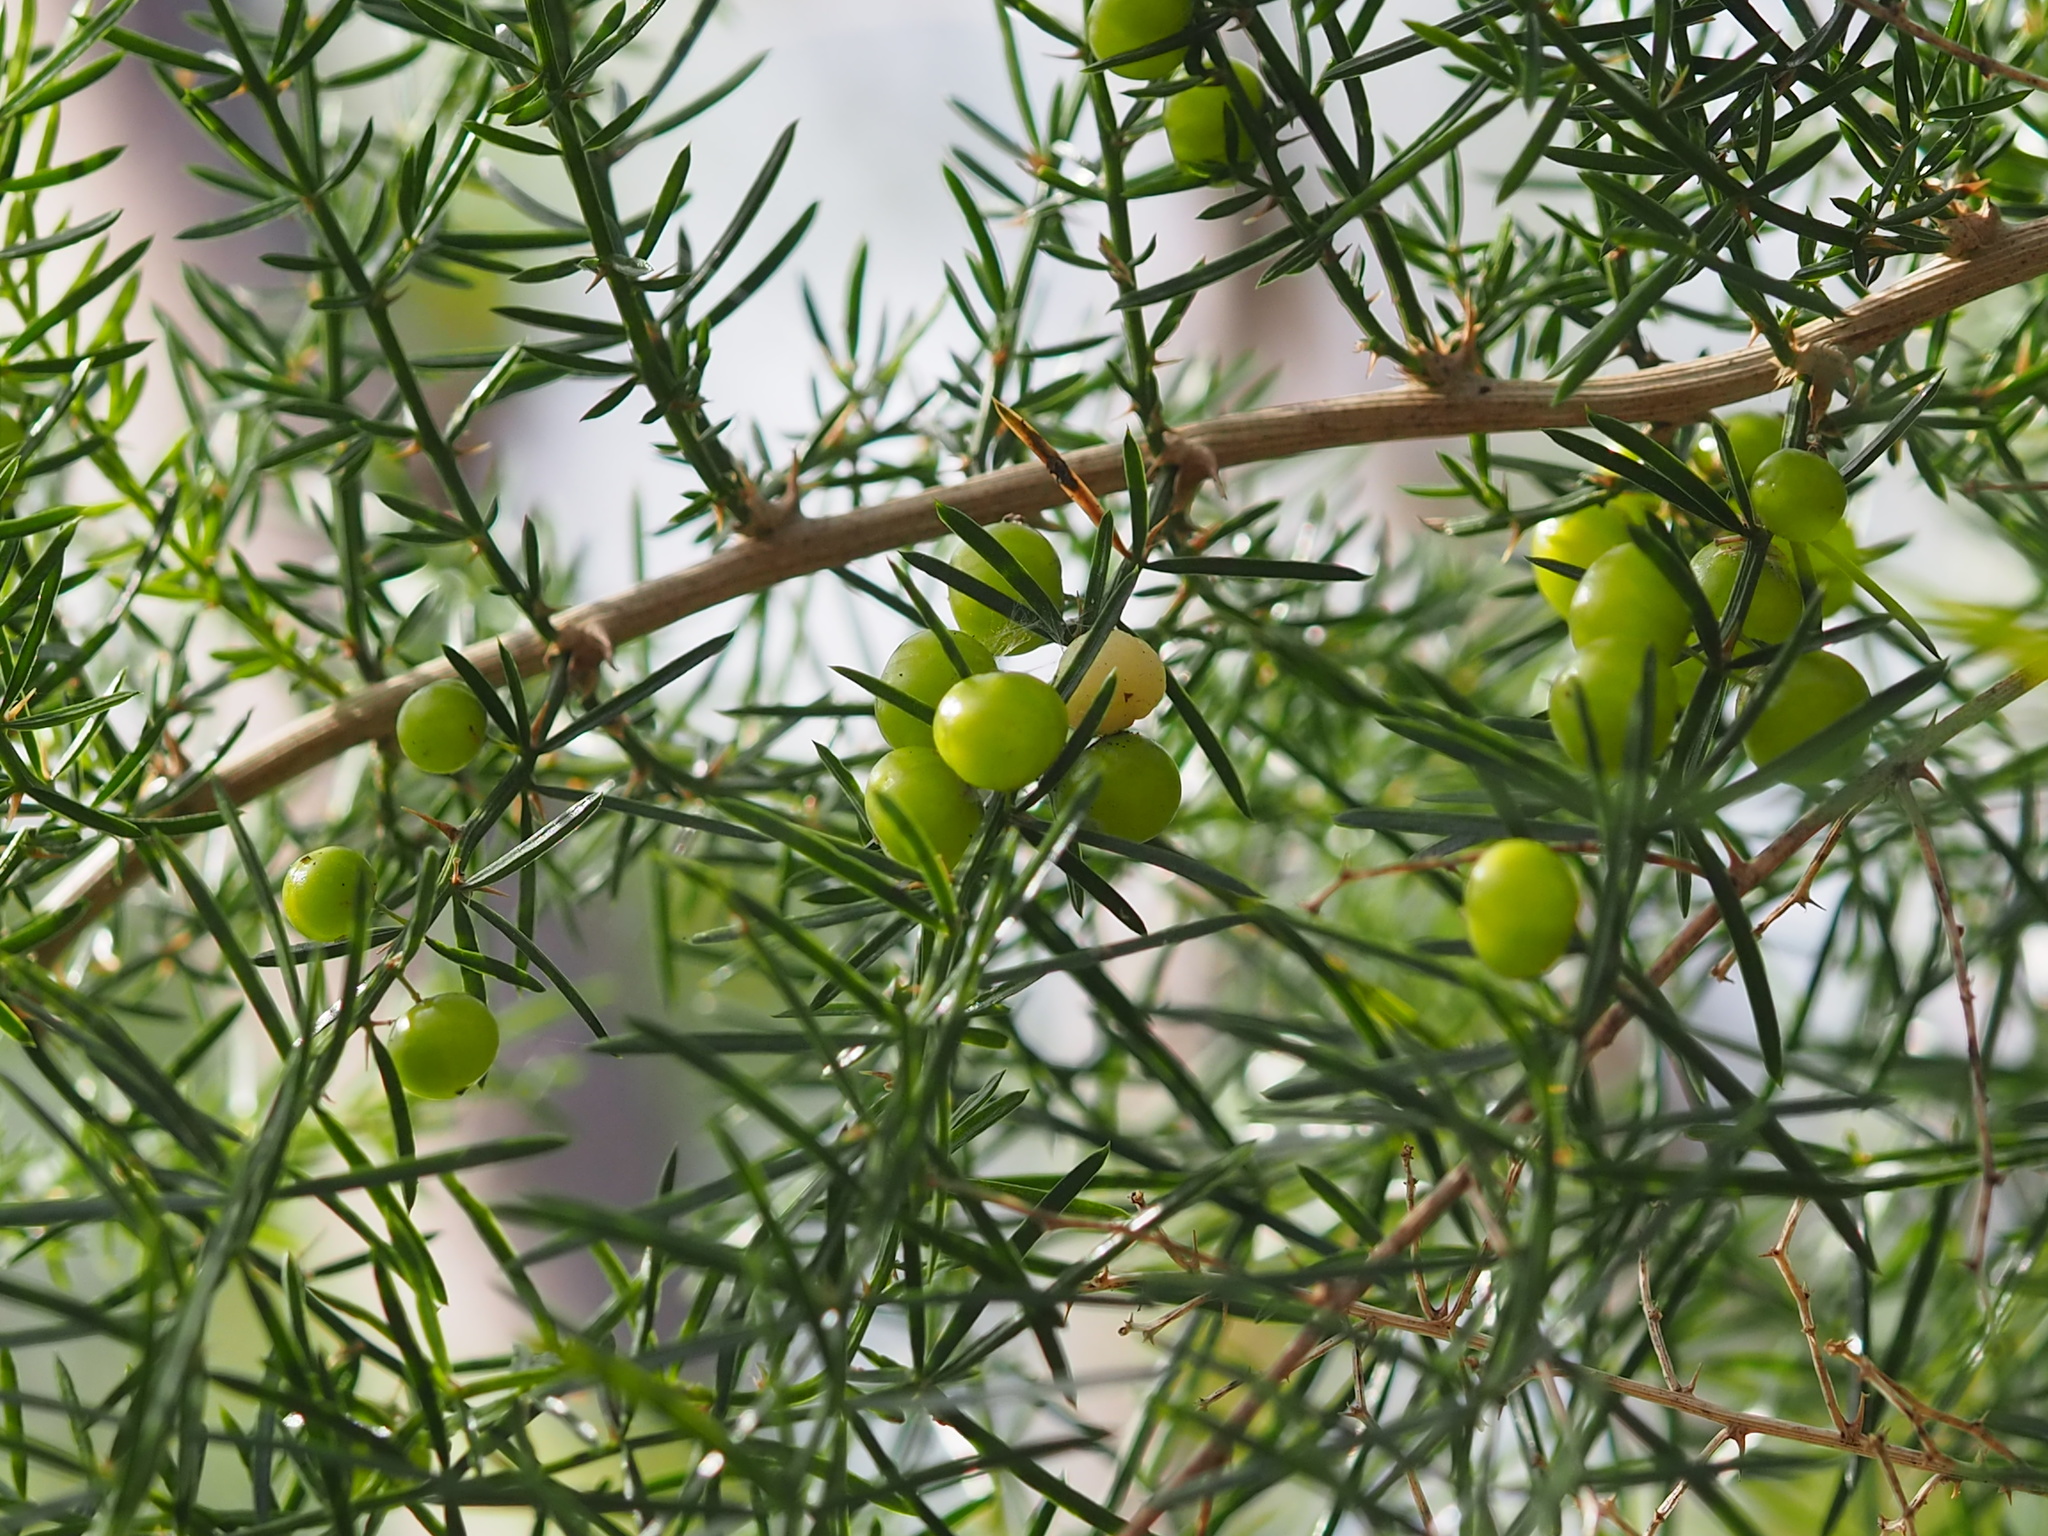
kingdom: Plantae
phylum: Tracheophyta
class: Liliopsida
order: Asparagales
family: Asparagaceae
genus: Asparagus
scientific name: Asparagus cochinchinensis
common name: Chinese asparagus
